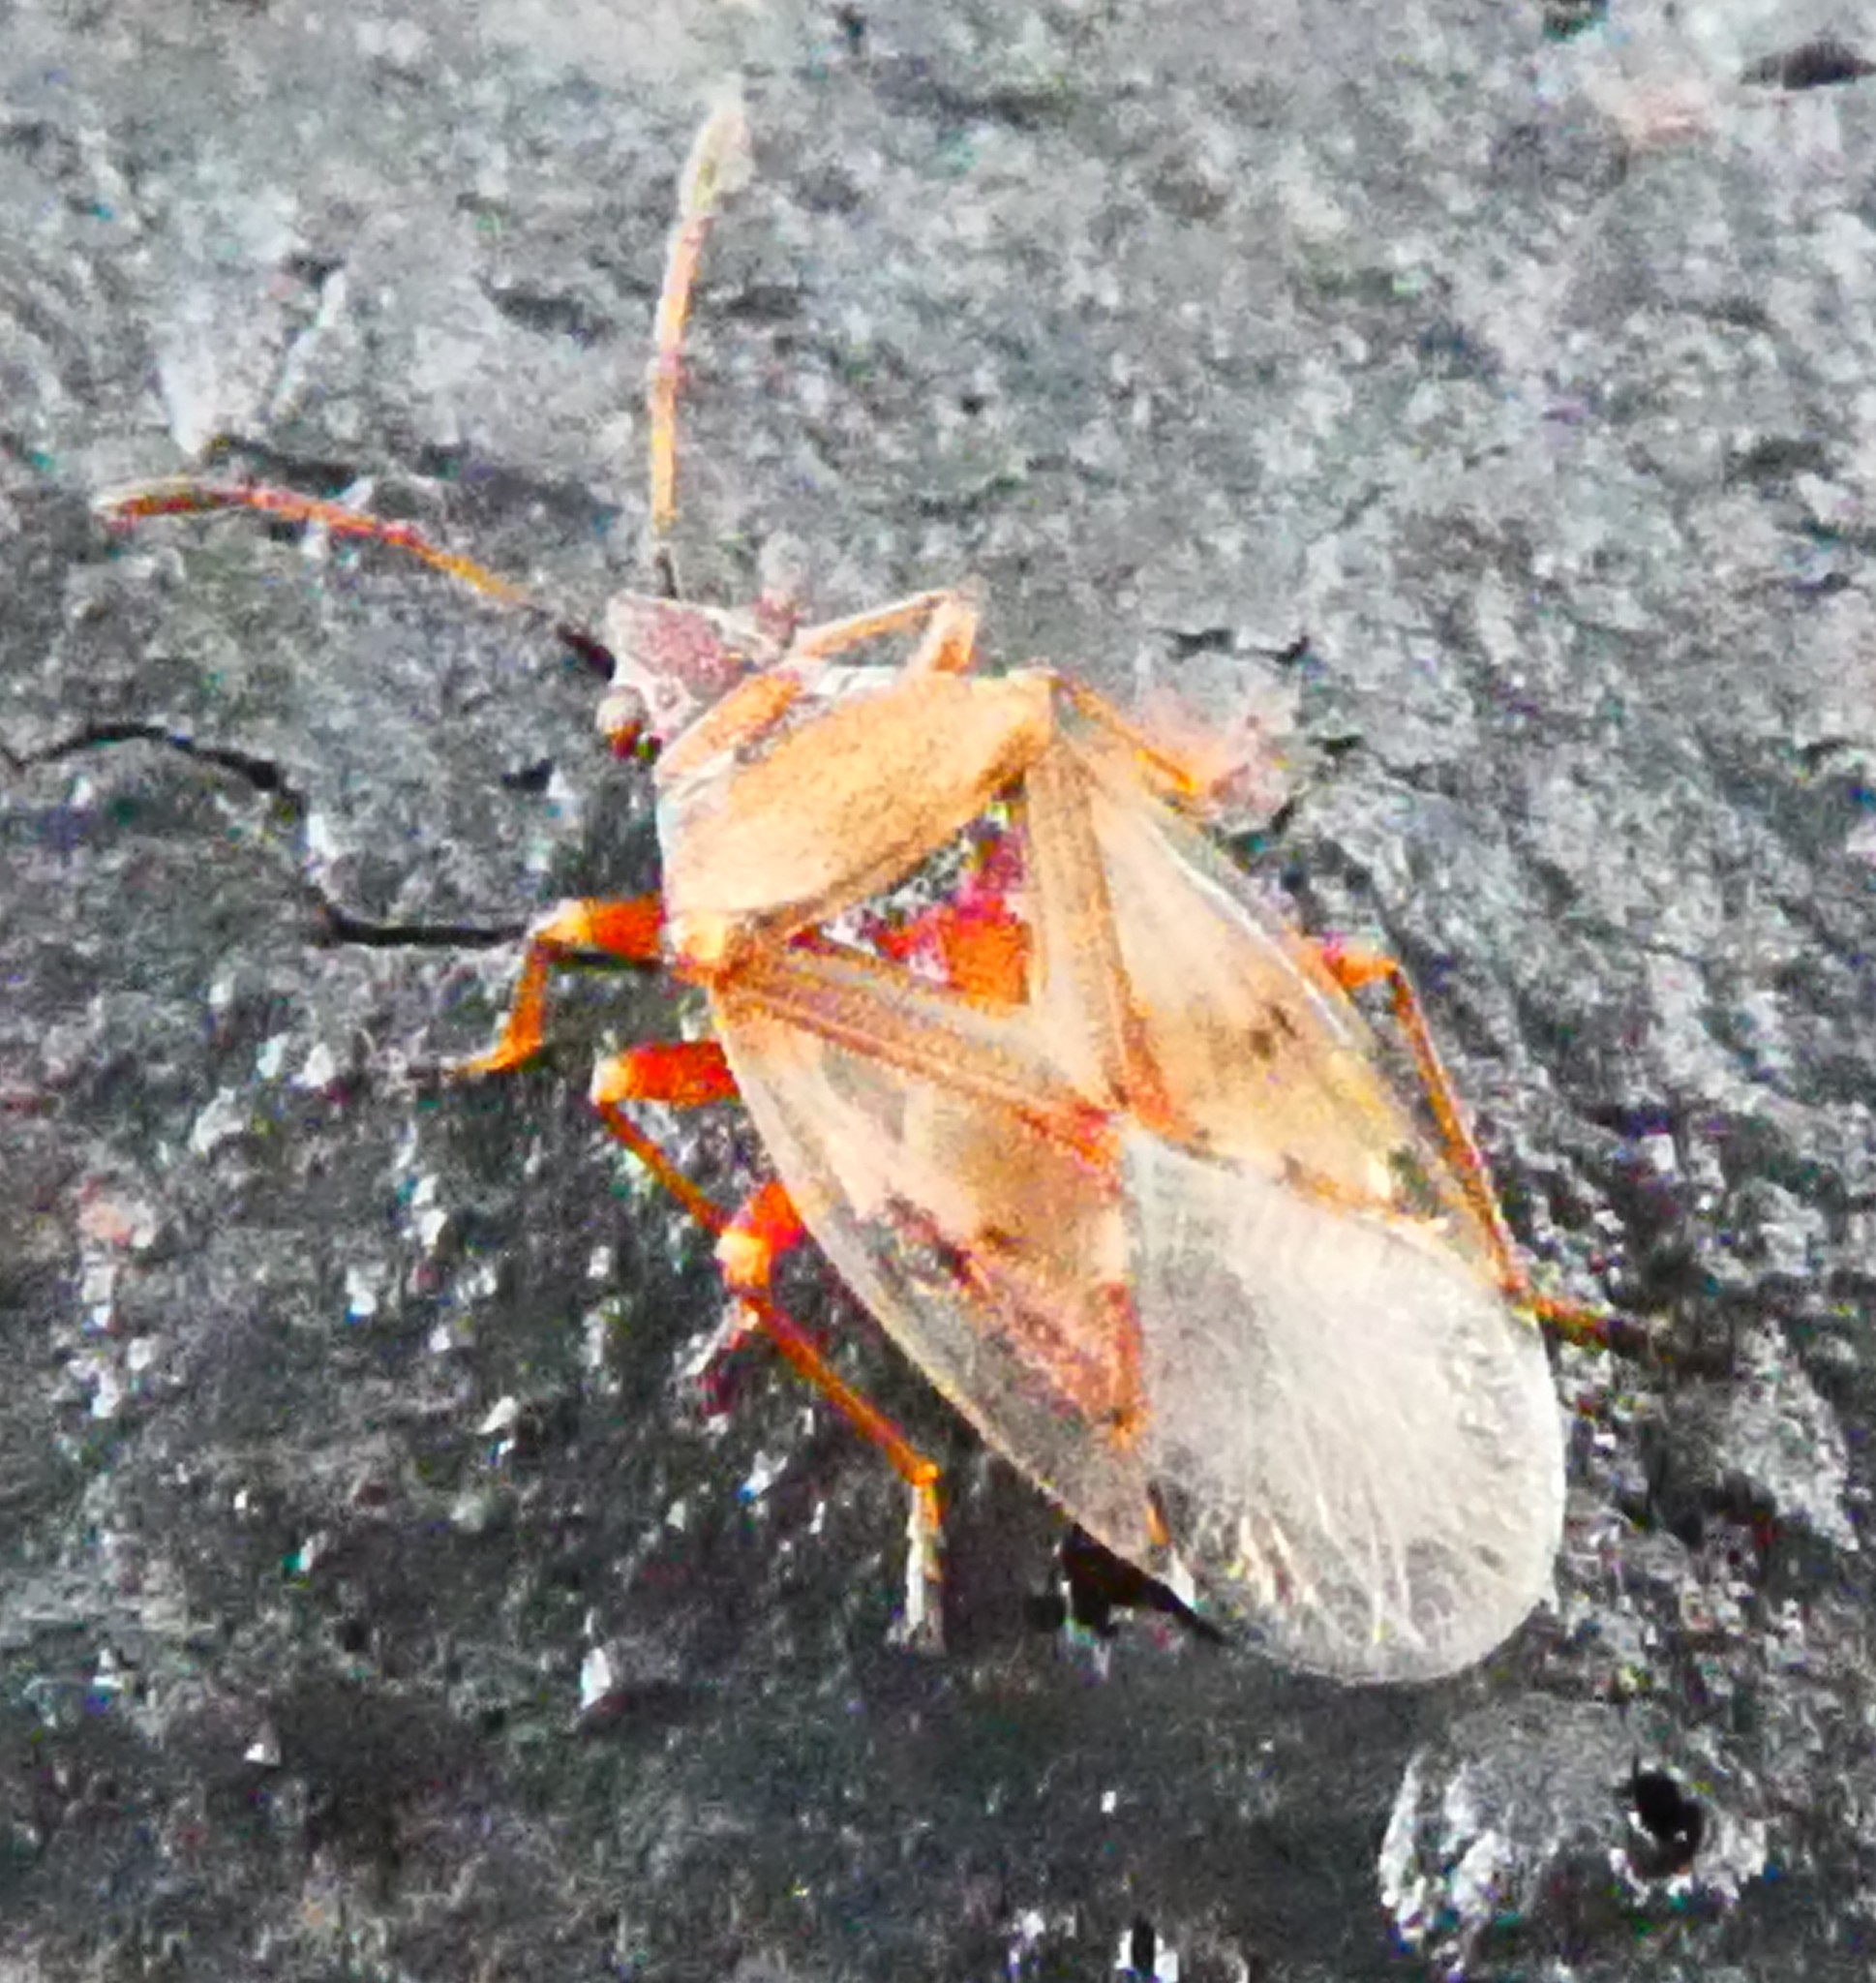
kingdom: Animalia
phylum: Arthropoda
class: Insecta
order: Hemiptera
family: Lygaeidae
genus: Kleidocerys
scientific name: Kleidocerys resedae
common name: Birch catkin bug
